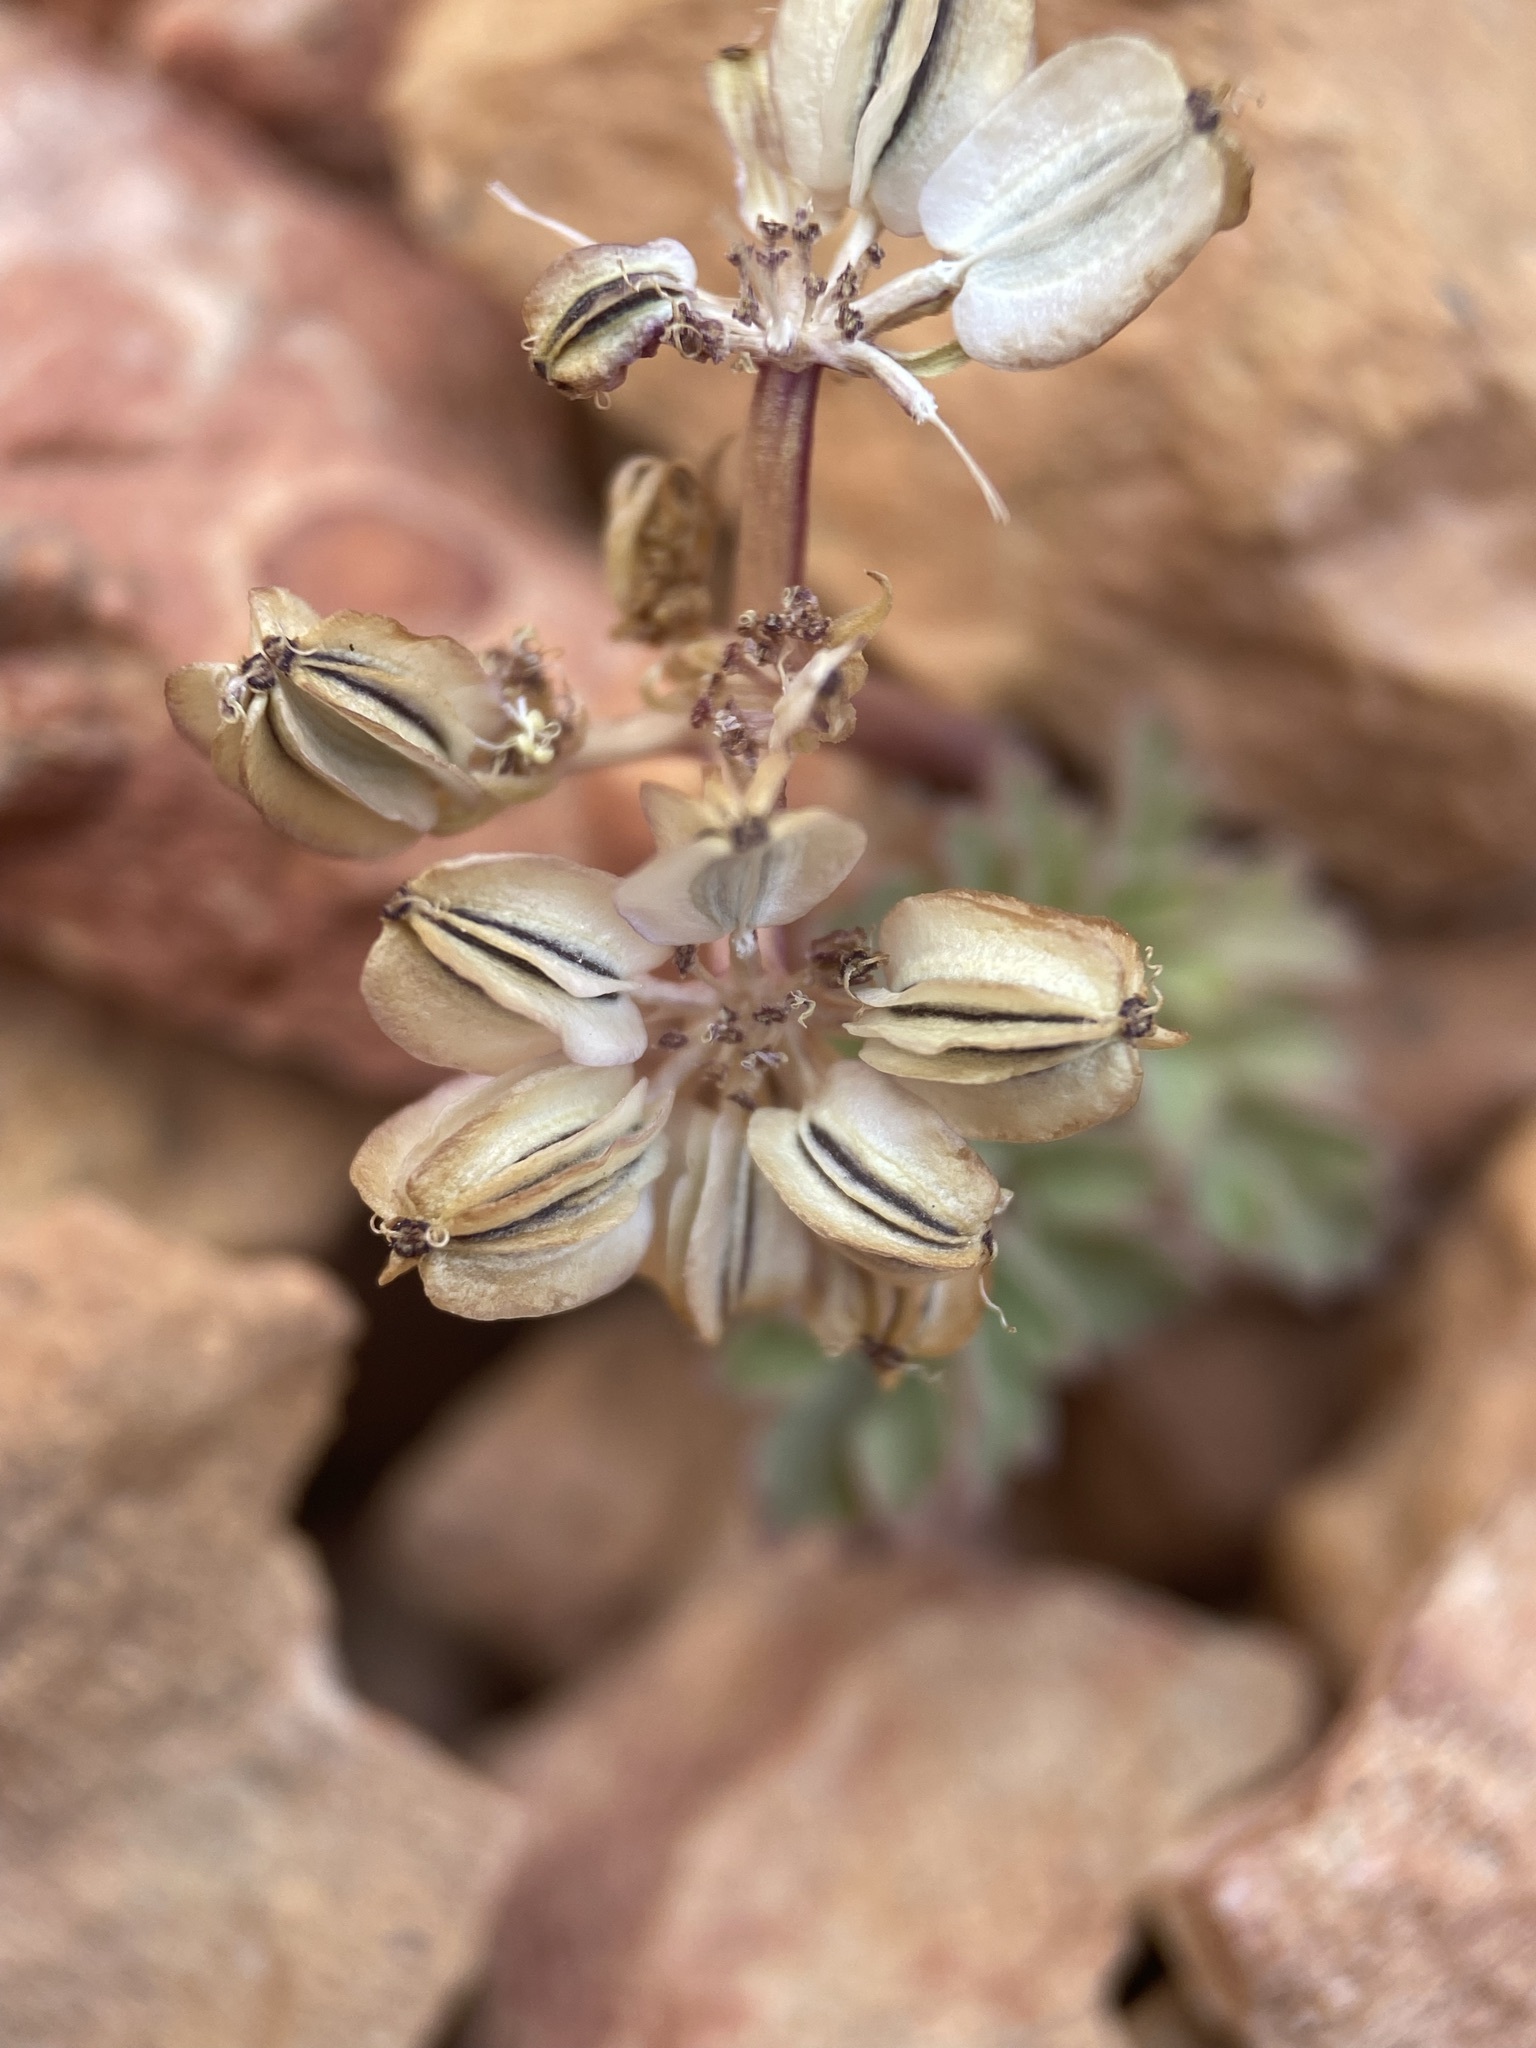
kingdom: Plantae
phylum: Tracheophyta
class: Magnoliopsida
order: Apiales
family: Apiaceae
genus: Cymopterus
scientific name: Cymopterus rosei
